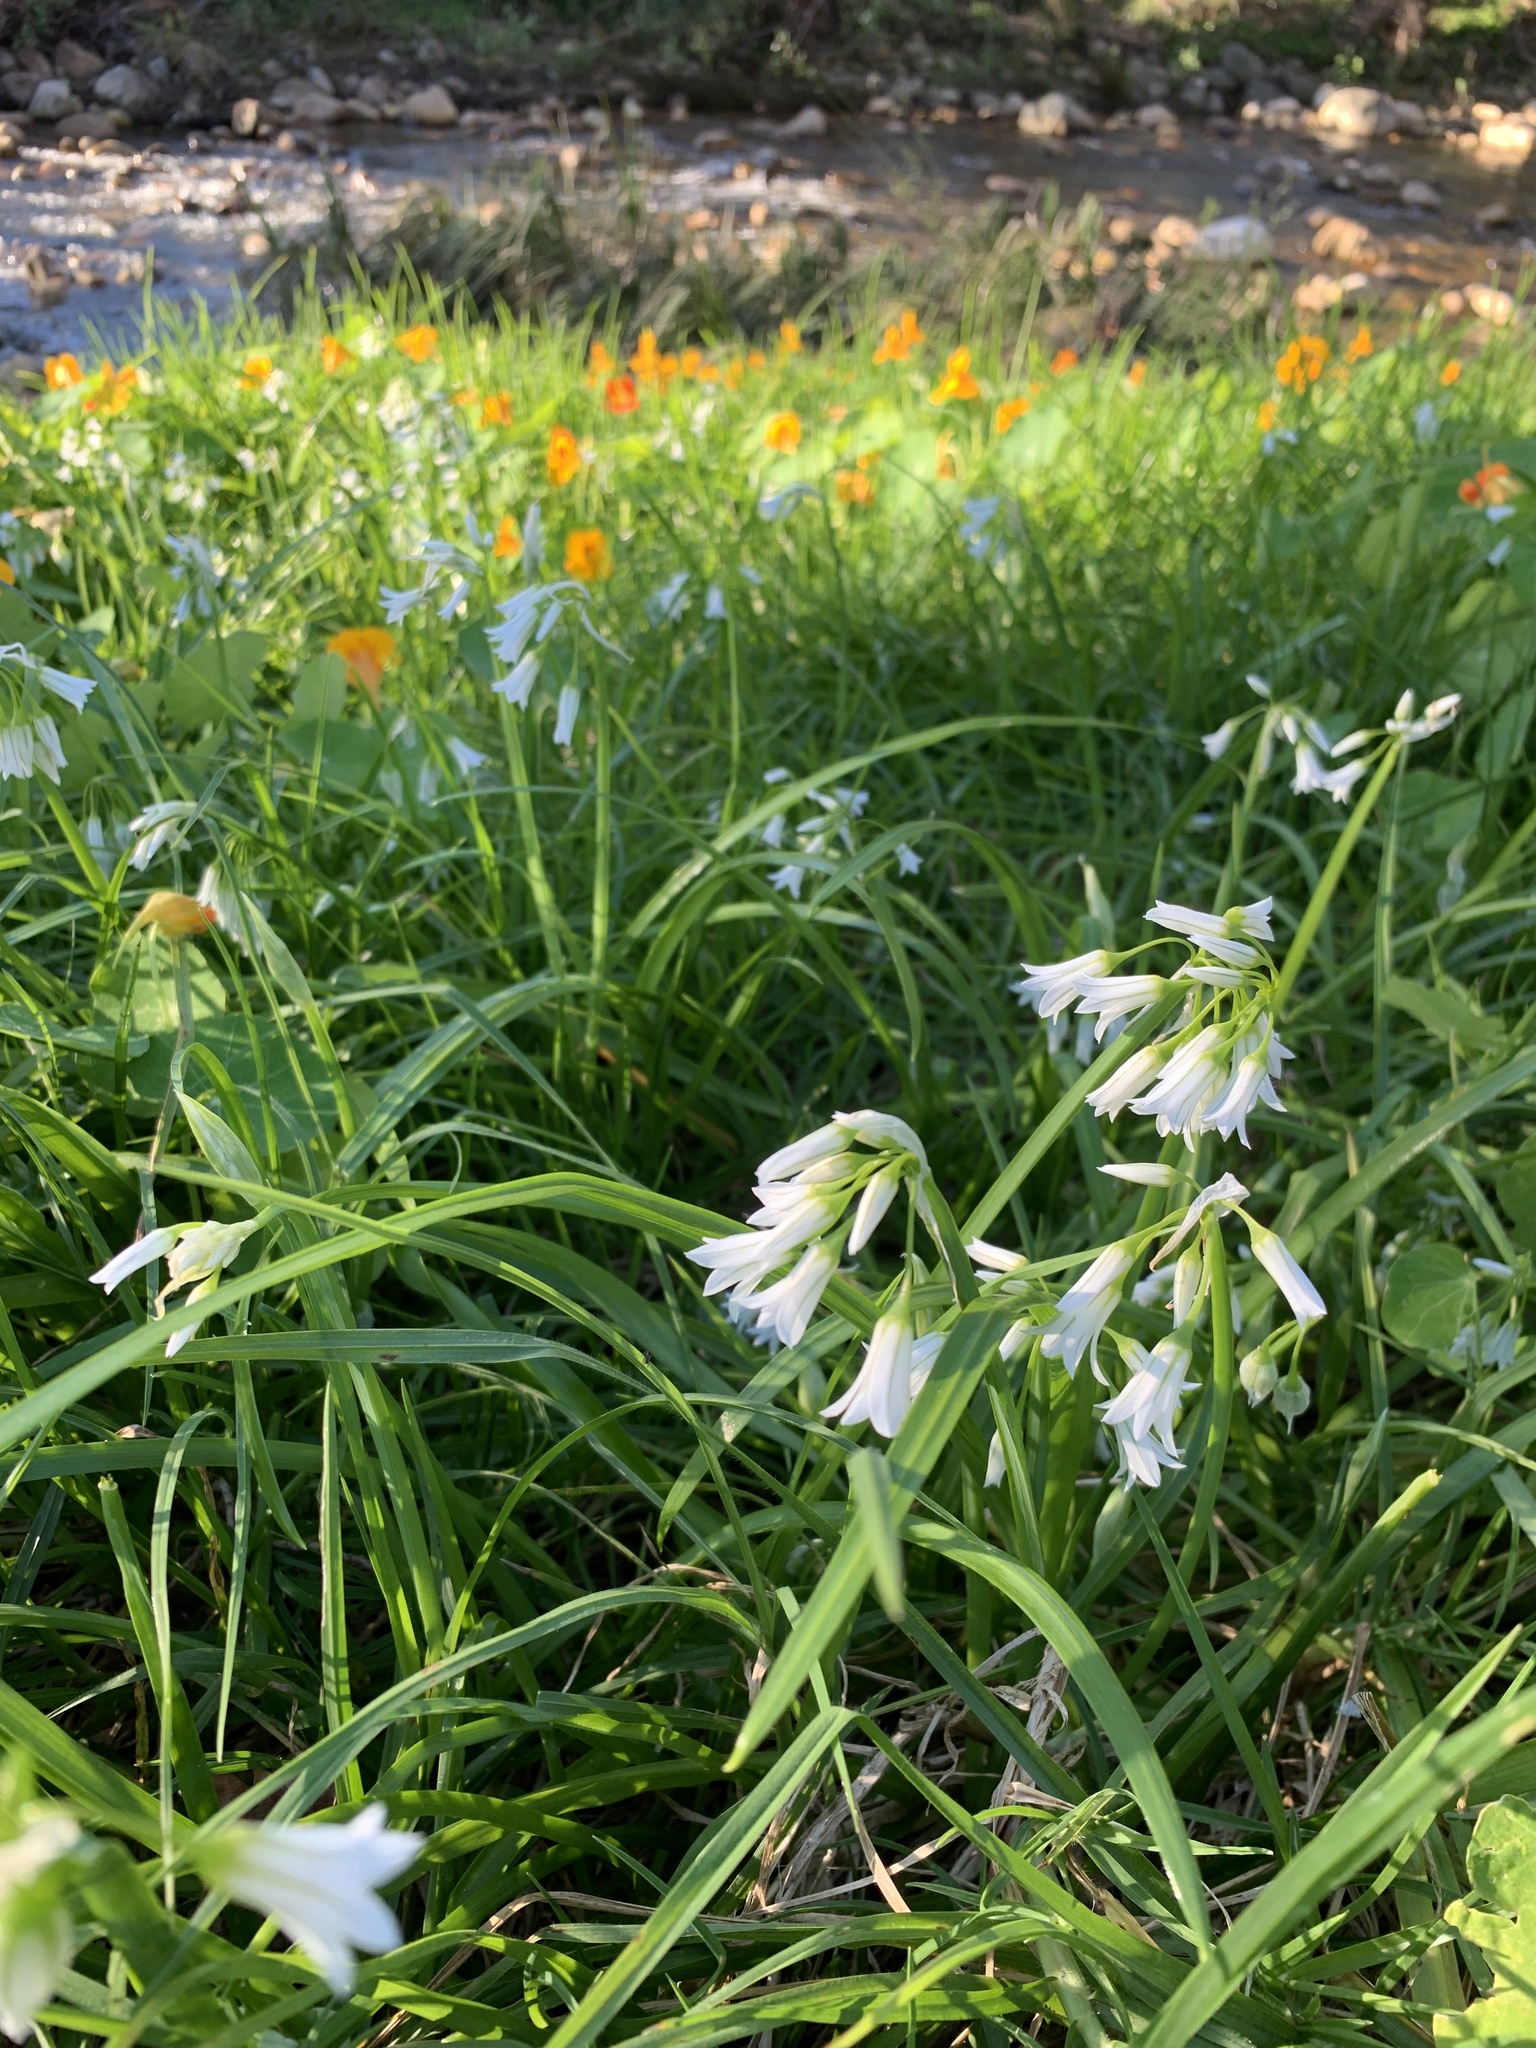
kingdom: Plantae
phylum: Tracheophyta
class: Liliopsida
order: Asparagales
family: Amaryllidaceae
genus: Allium
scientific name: Allium triquetrum
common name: Three-cornered garlic
